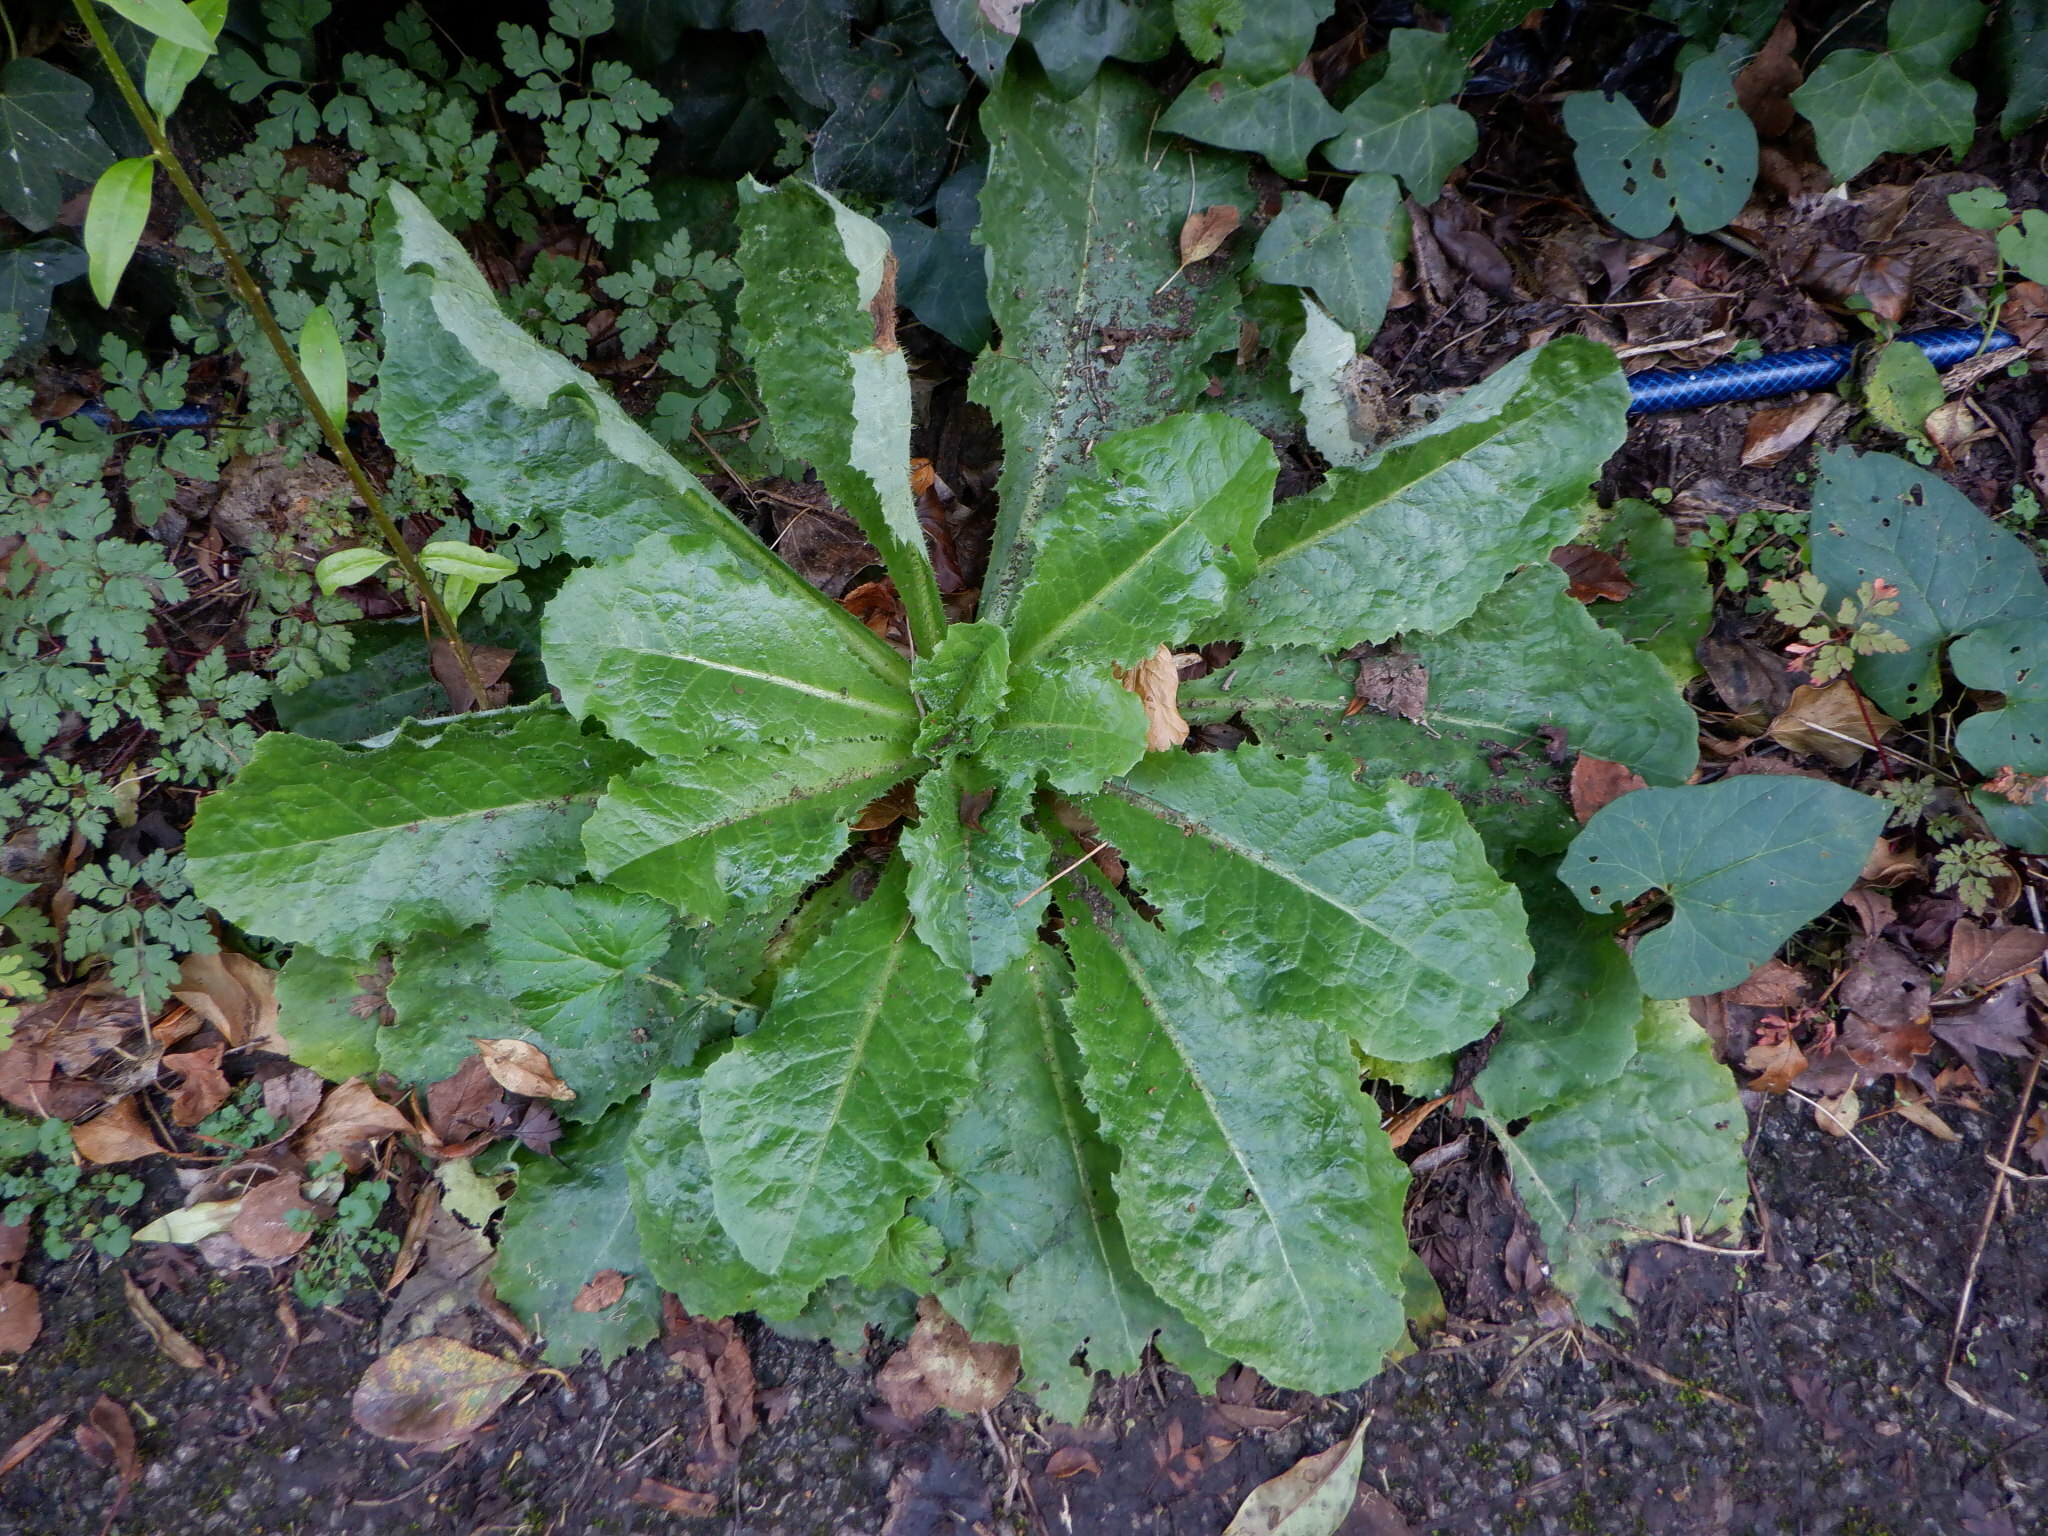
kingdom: Plantae
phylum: Tracheophyta
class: Magnoliopsida
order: Asterales
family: Asteraceae
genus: Lactuca
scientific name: Lactuca virosa
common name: Great lettuce
